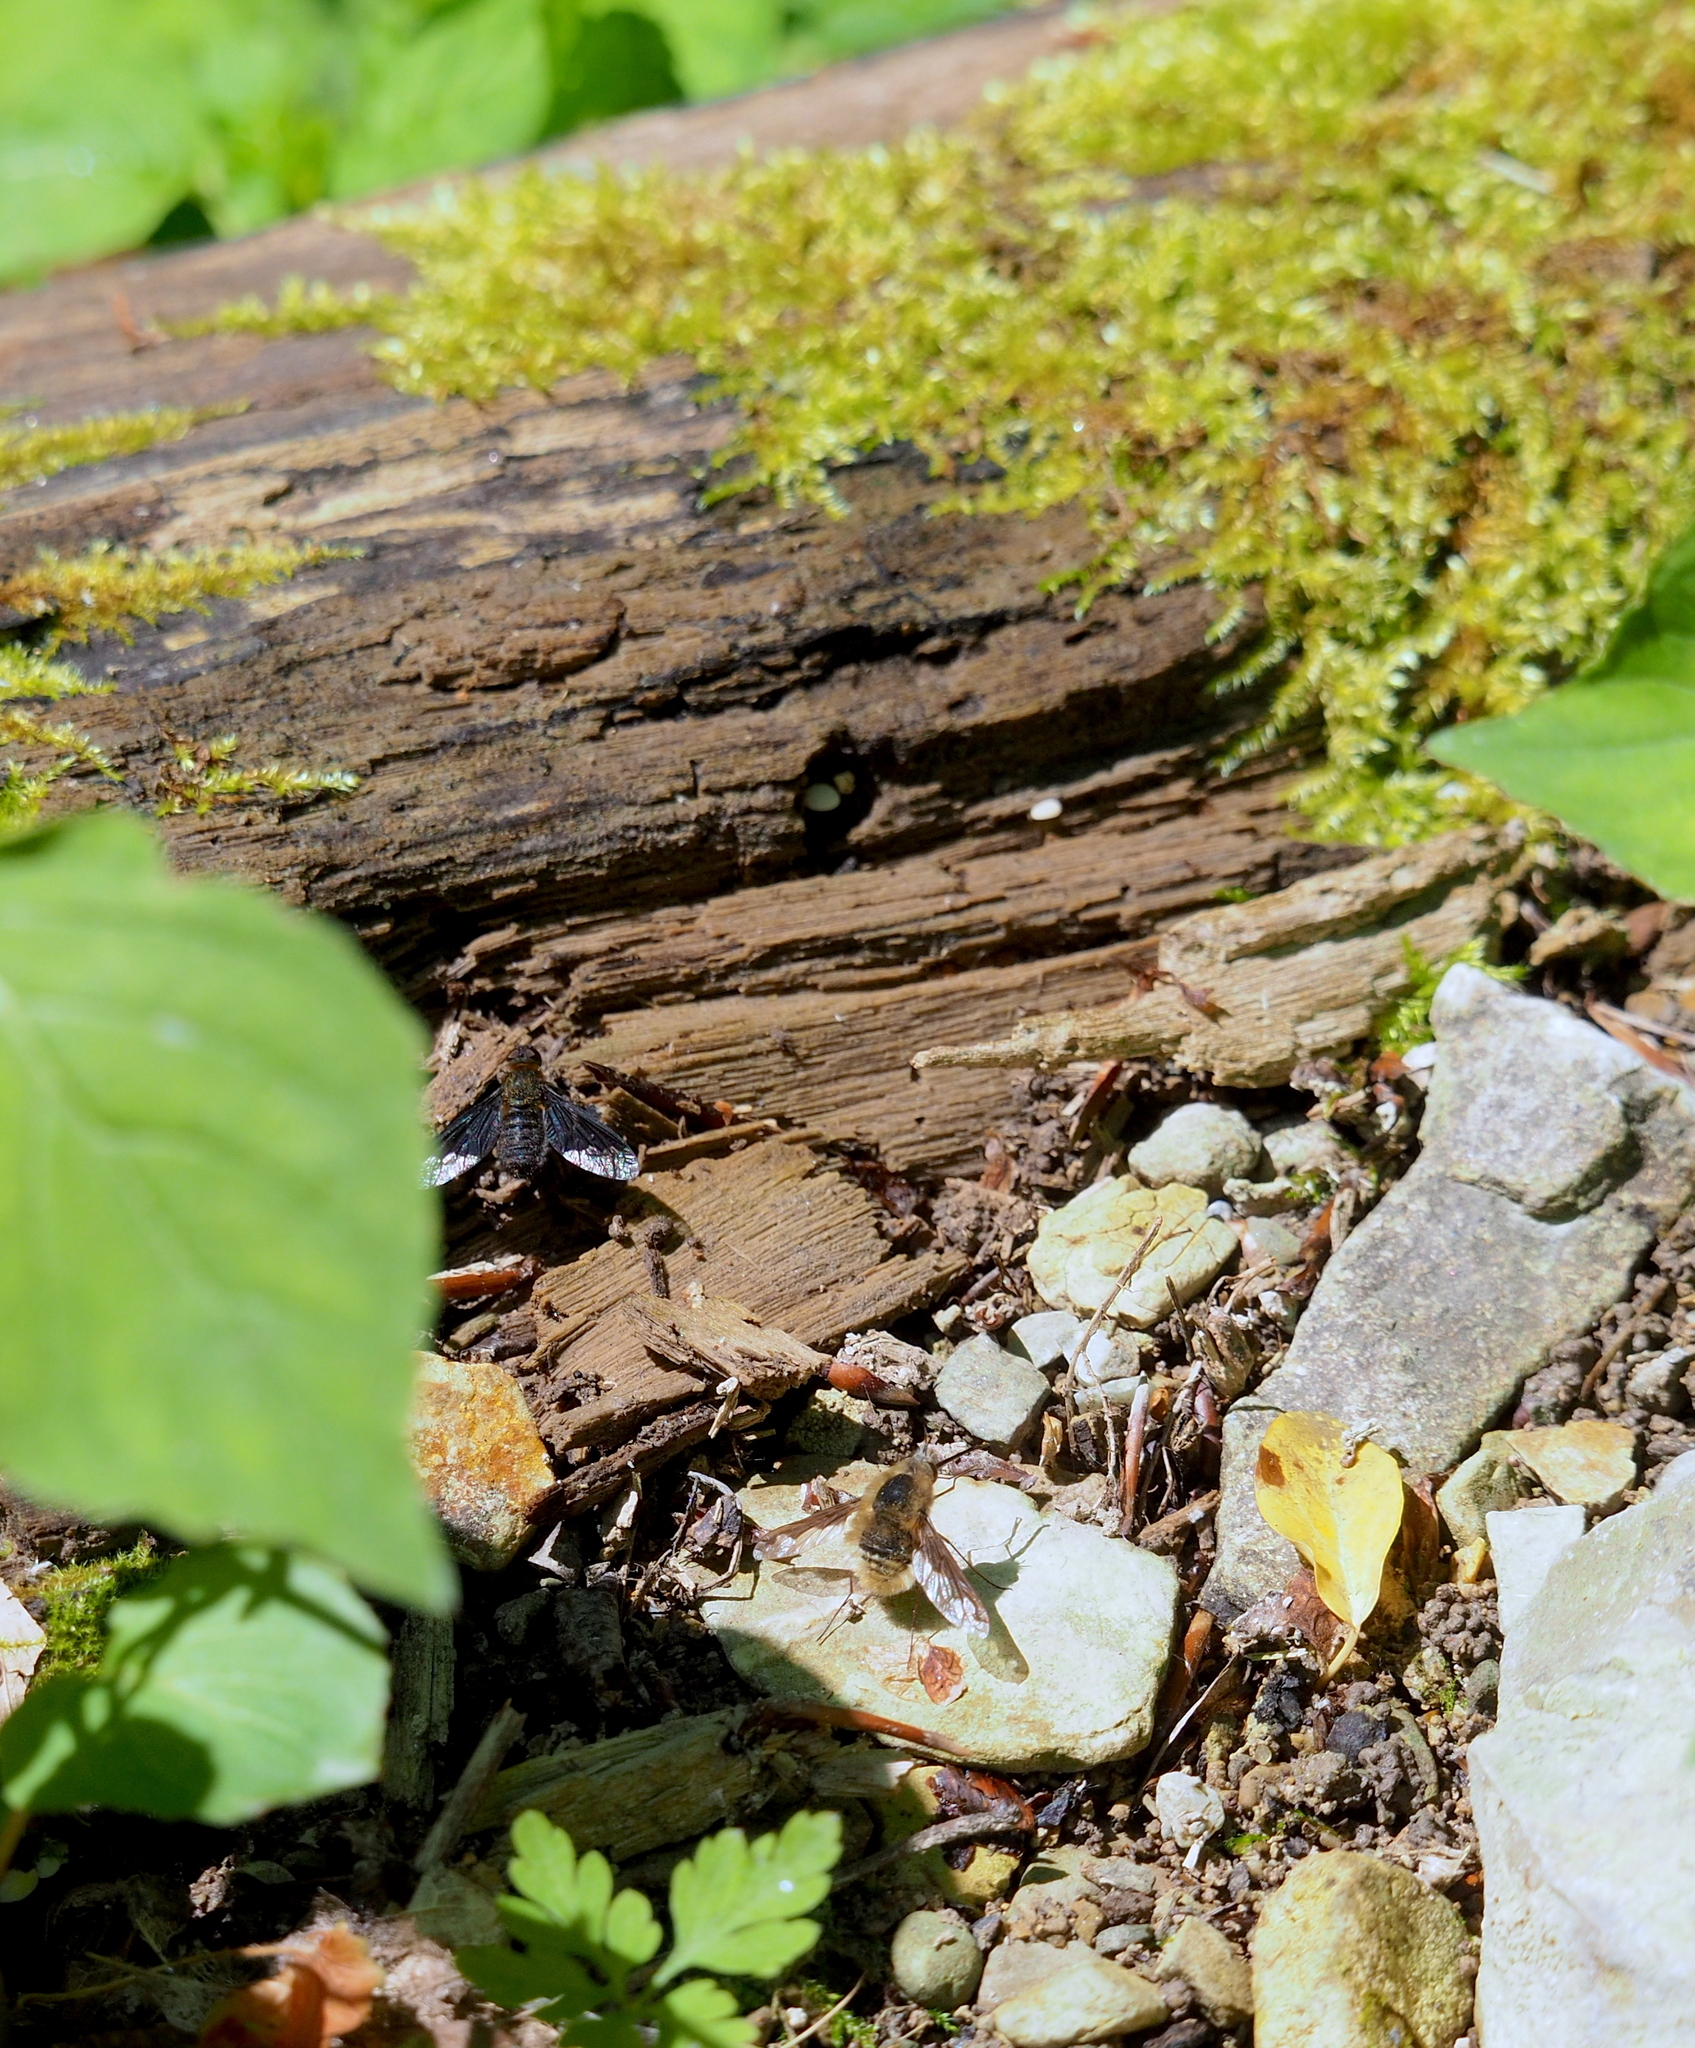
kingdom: Animalia
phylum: Arthropoda
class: Insecta
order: Diptera
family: Bombyliidae
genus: Bombylius
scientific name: Bombylius major
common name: Bee fly
